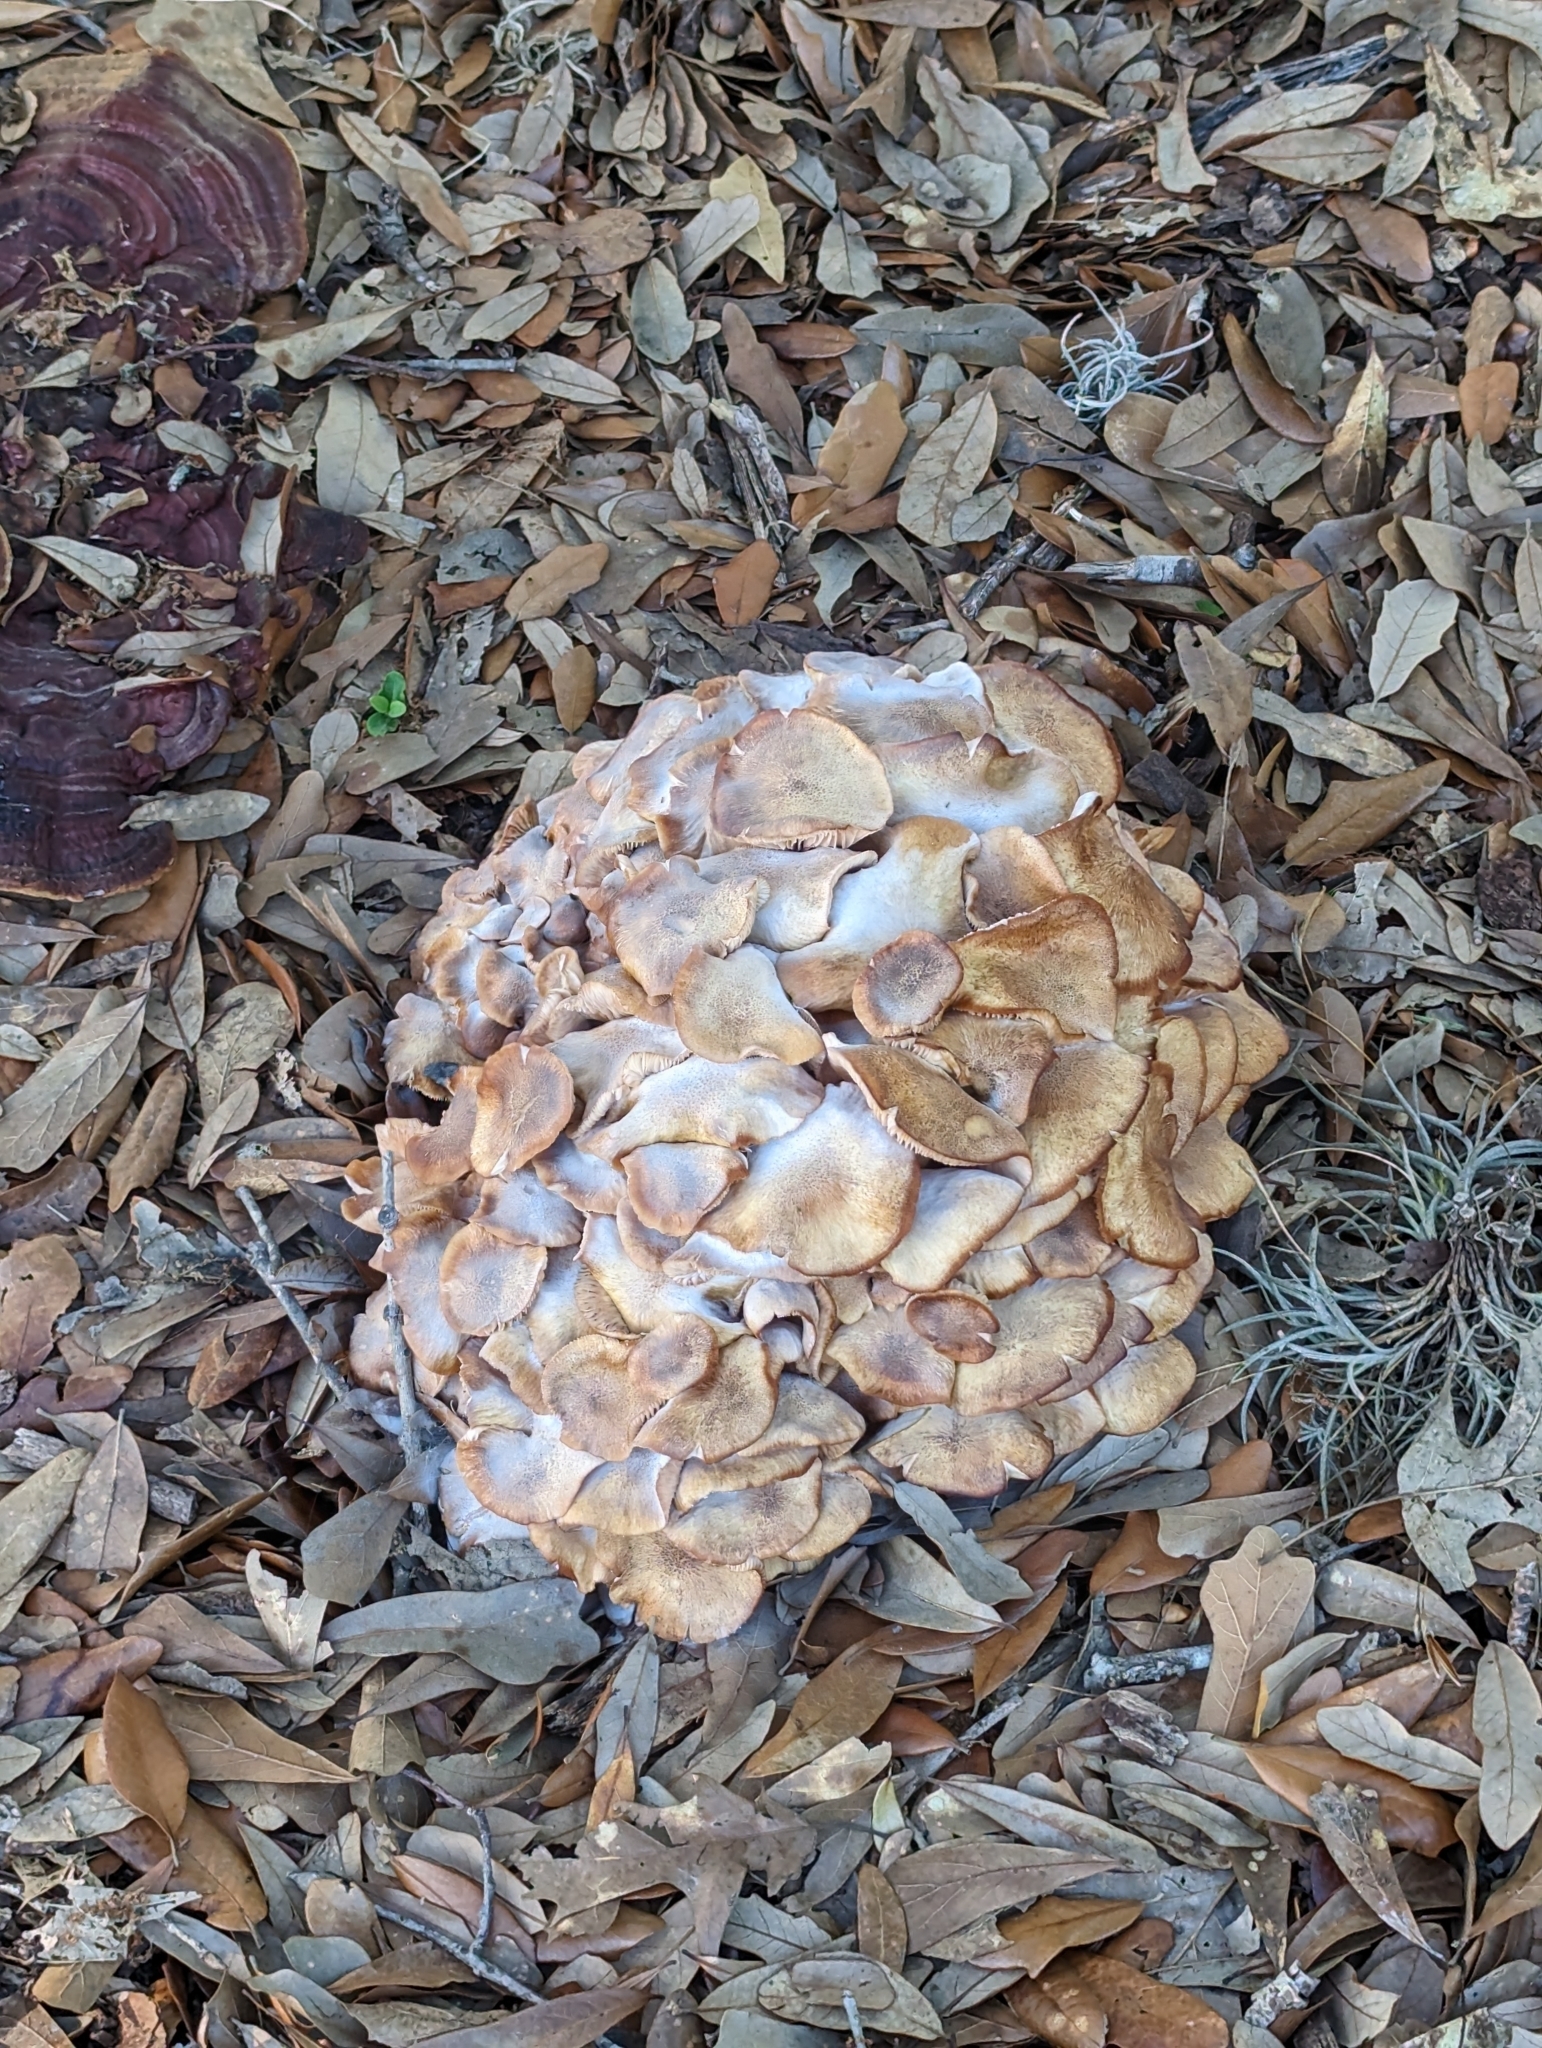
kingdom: Fungi
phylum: Basidiomycota
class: Agaricomycetes
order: Agaricales
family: Physalacriaceae
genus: Desarmillaria
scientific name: Desarmillaria caespitosa
